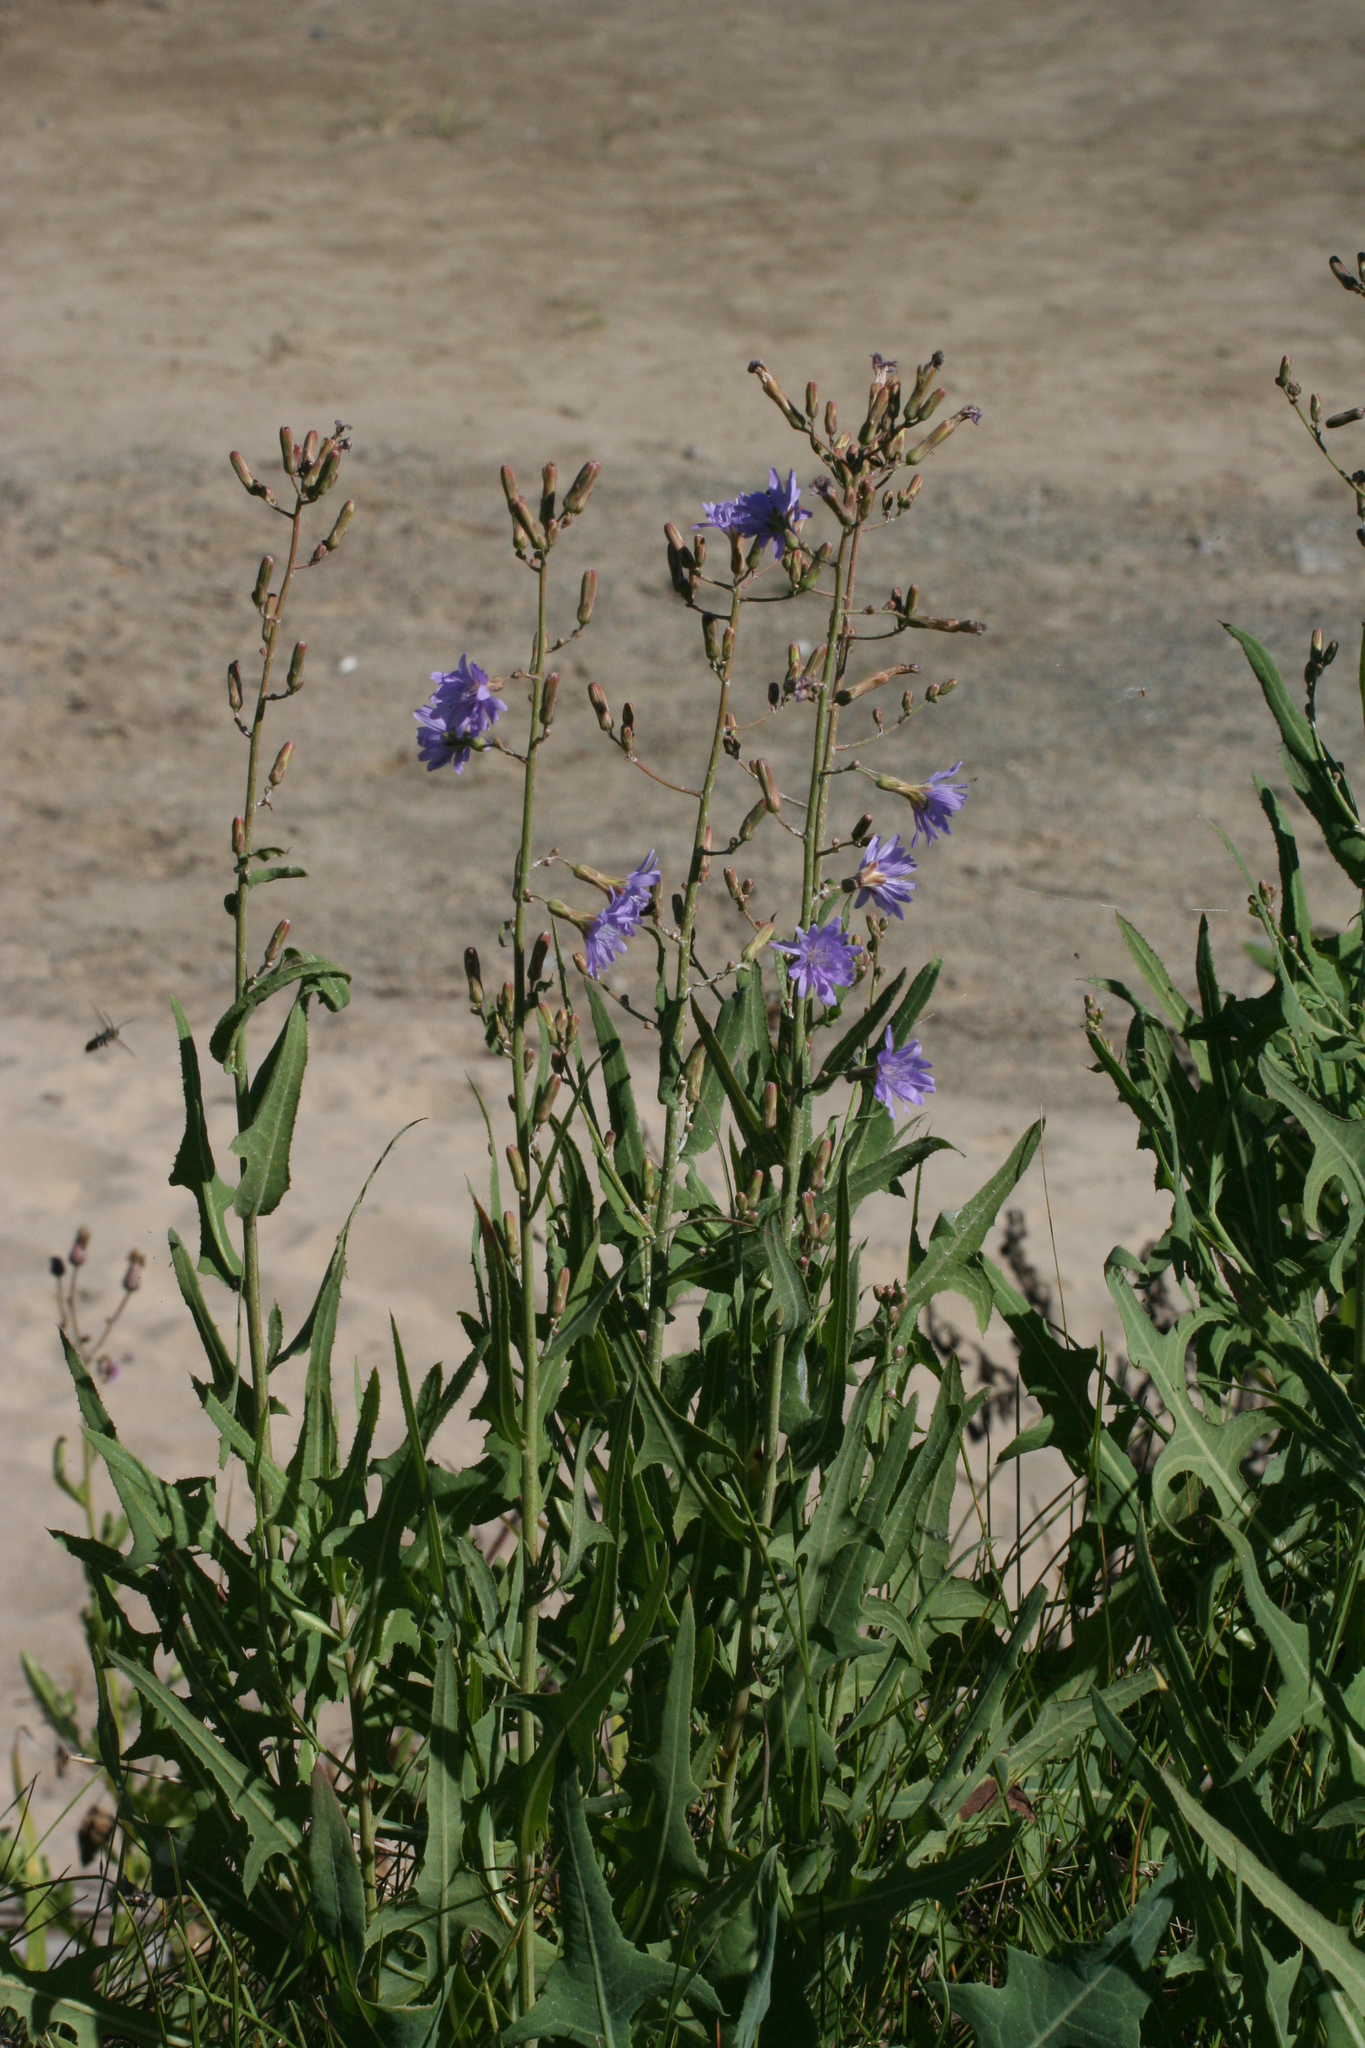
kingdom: Plantae
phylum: Tracheophyta
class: Magnoliopsida
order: Asterales
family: Asteraceae
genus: Lactuca
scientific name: Lactuca tatarica
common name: Blue lettuce
